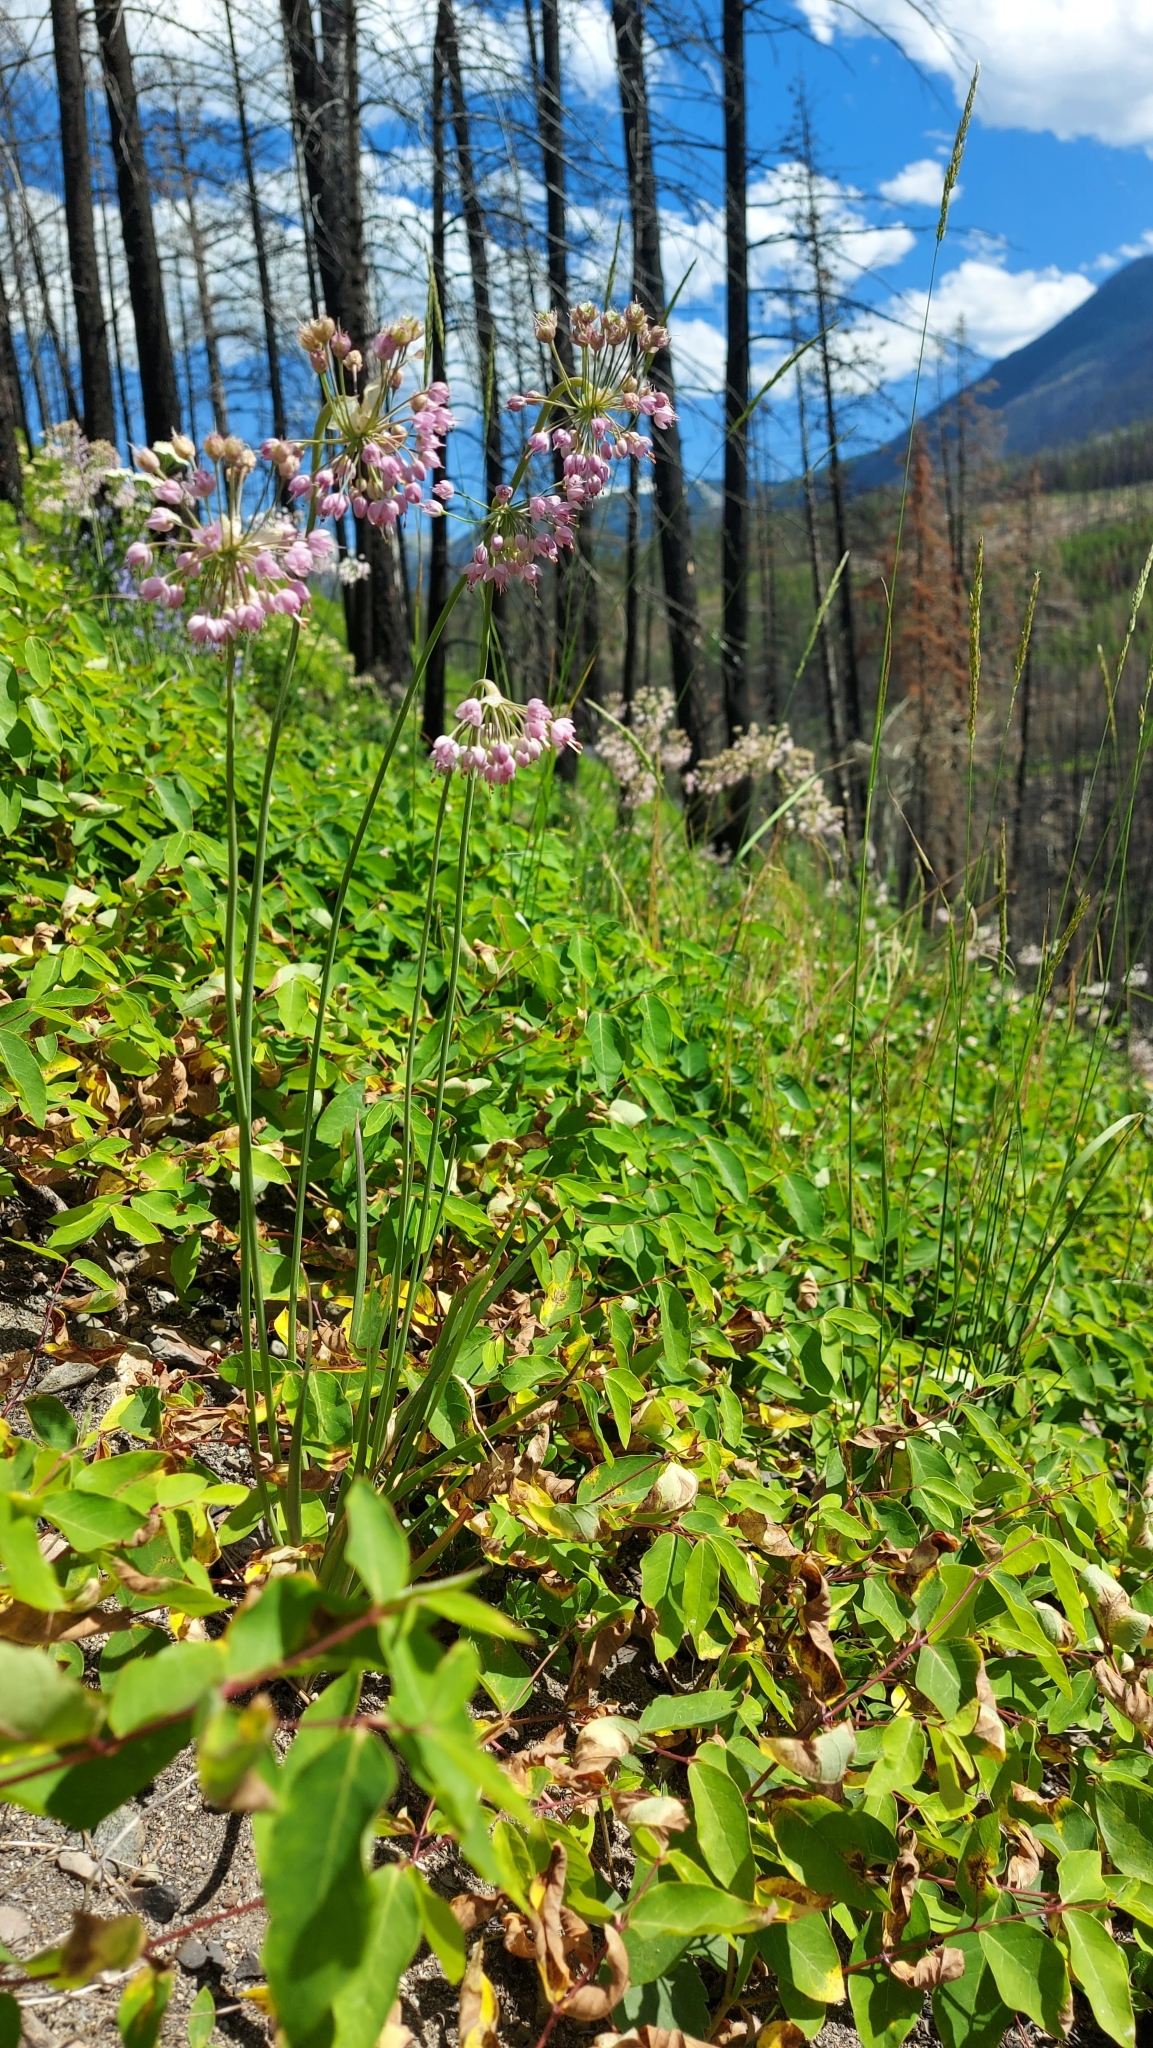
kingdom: Plantae
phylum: Tracheophyta
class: Liliopsida
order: Asparagales
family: Amaryllidaceae
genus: Allium
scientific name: Allium cernuum
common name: Nodding onion
